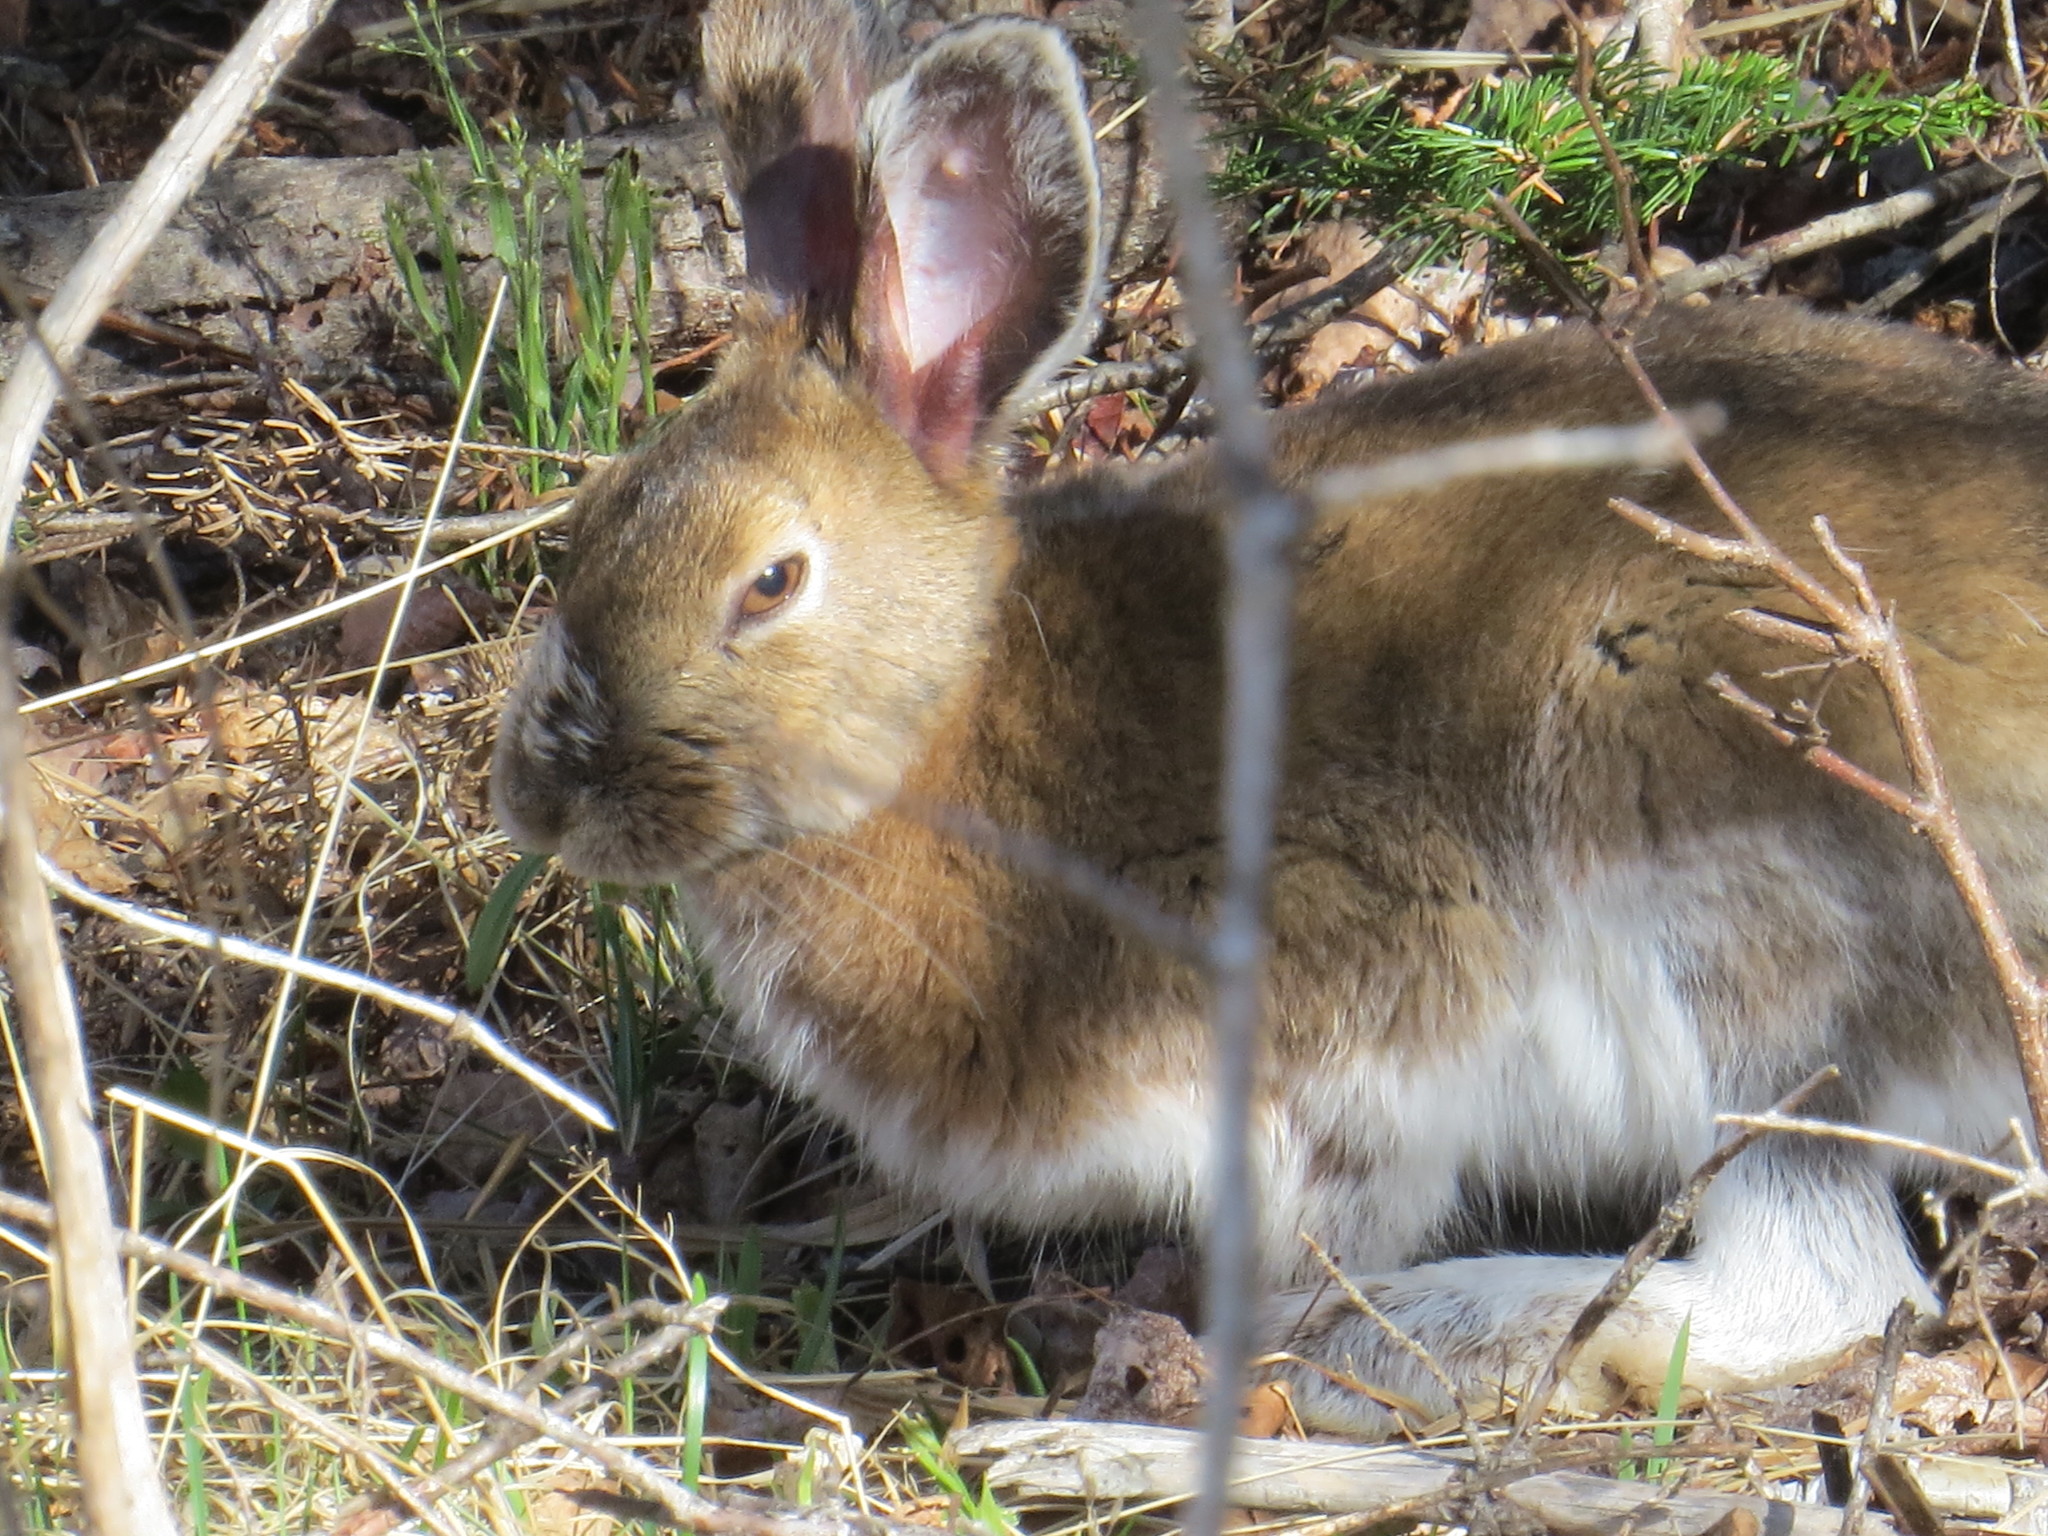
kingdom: Animalia
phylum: Chordata
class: Mammalia
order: Lagomorpha
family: Leporidae
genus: Lepus
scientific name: Lepus americanus
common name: Snowshoe hare
